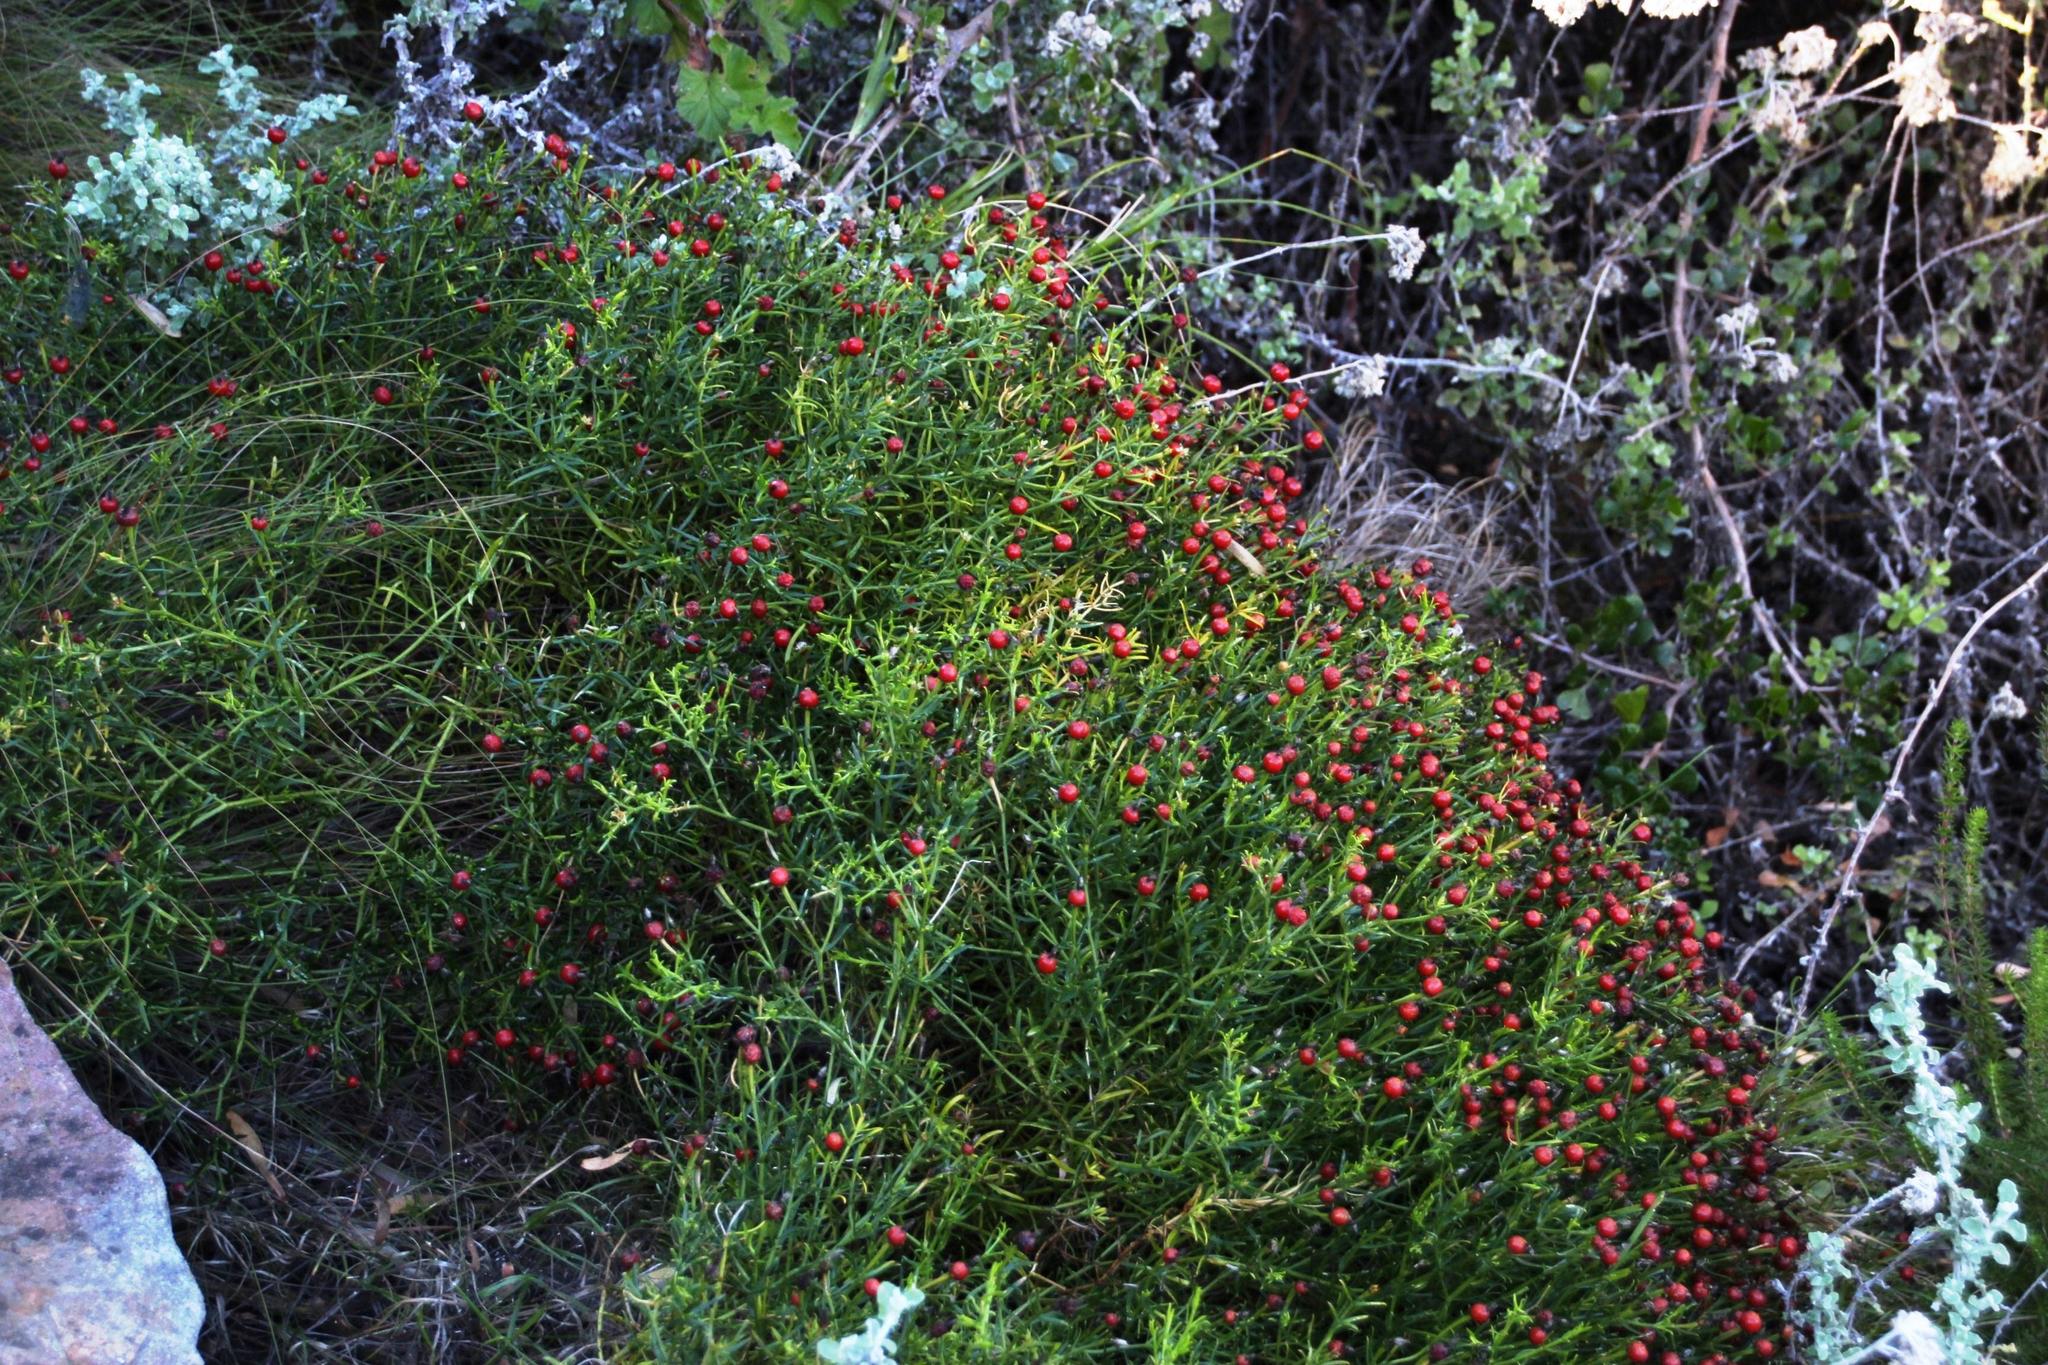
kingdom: Plantae
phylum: Tracheophyta
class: Magnoliopsida
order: Gentianales
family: Gentianaceae
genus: Chironia
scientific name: Chironia baccifera
